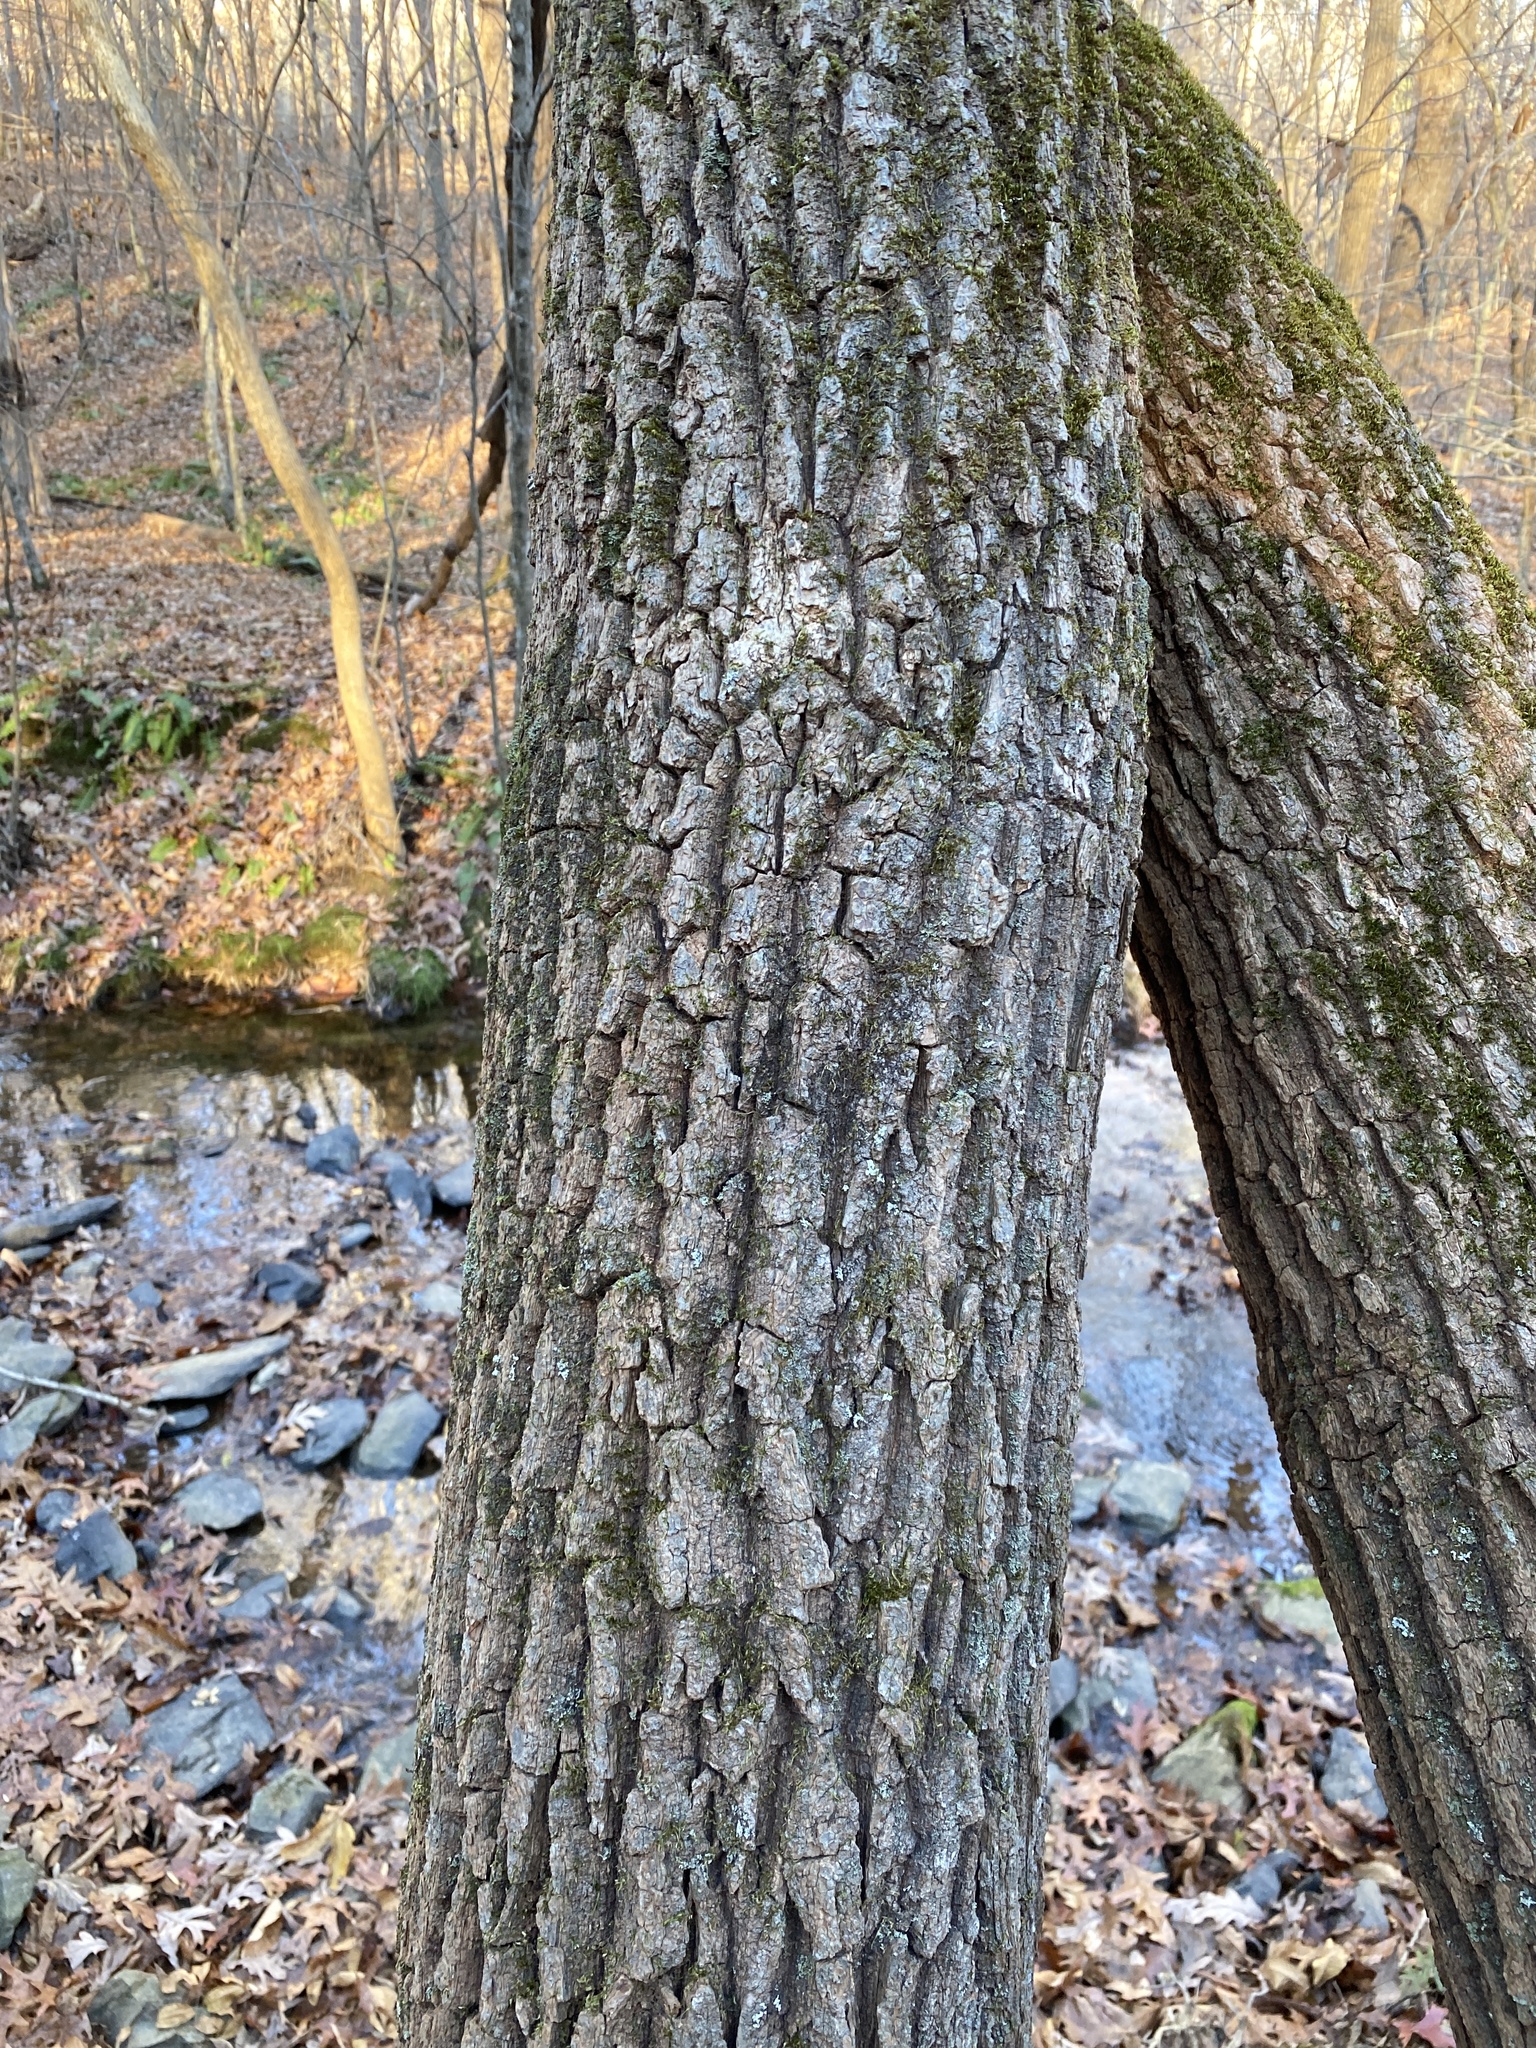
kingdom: Plantae
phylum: Tracheophyta
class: Magnoliopsida
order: Ericales
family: Ericaceae
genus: Oxydendrum
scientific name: Oxydendrum arboreum
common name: Sourwood
